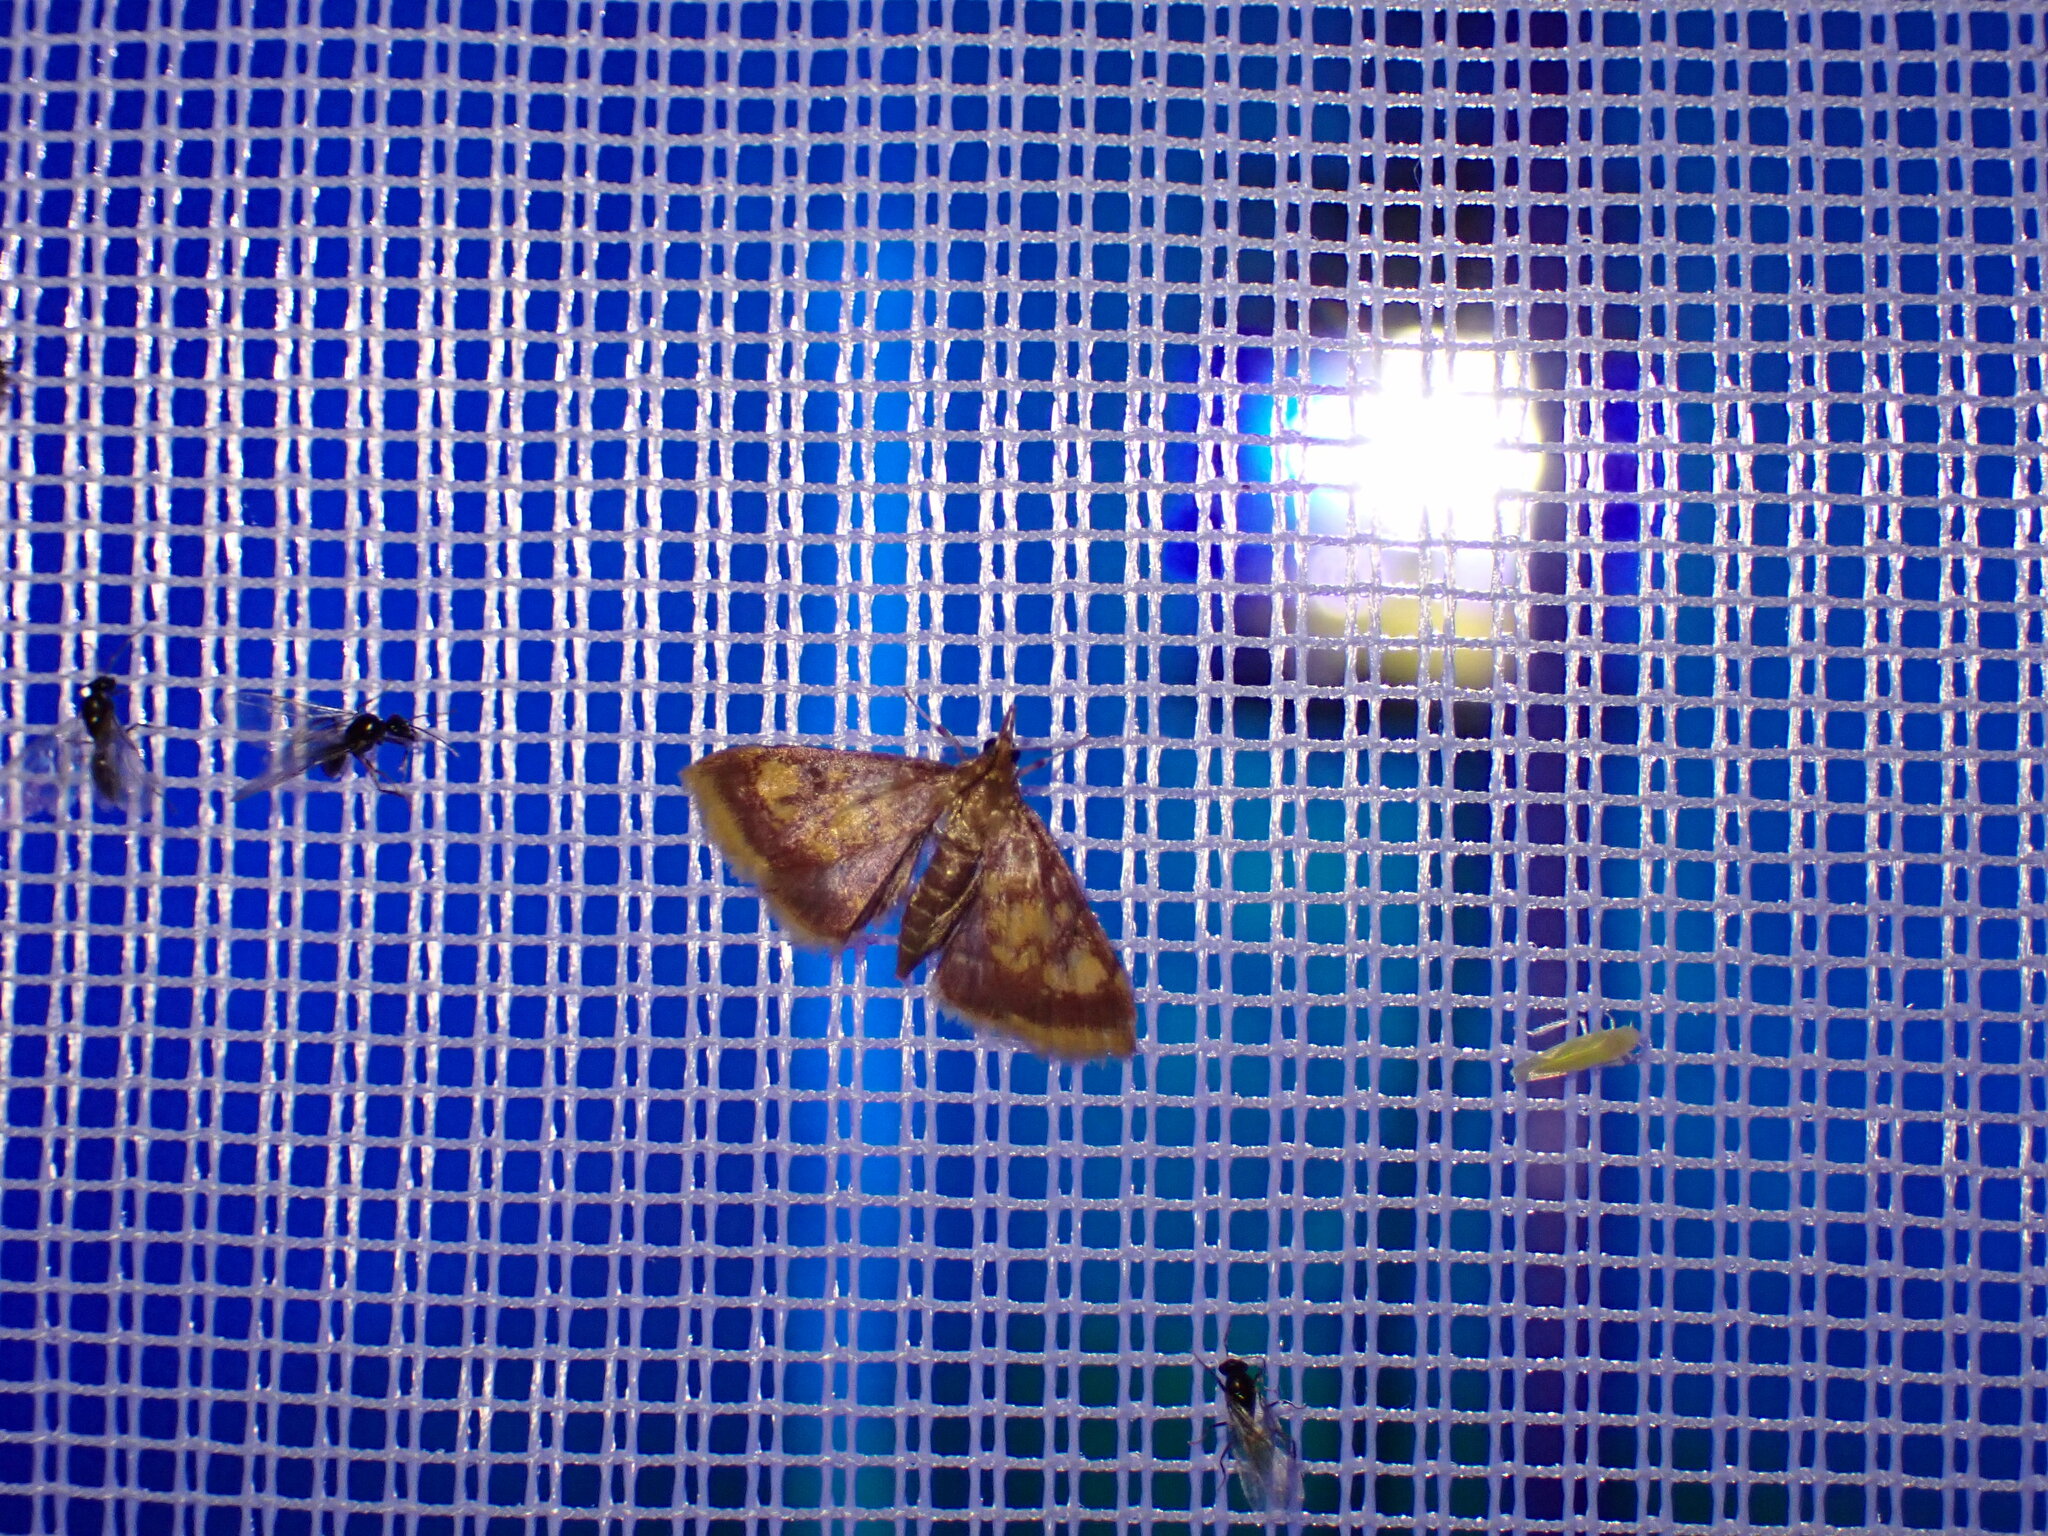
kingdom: Animalia
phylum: Arthropoda
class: Insecta
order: Lepidoptera
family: Crambidae
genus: Pyrausta
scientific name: Pyrausta acrionalis
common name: Mint-loving pyrausta moth
